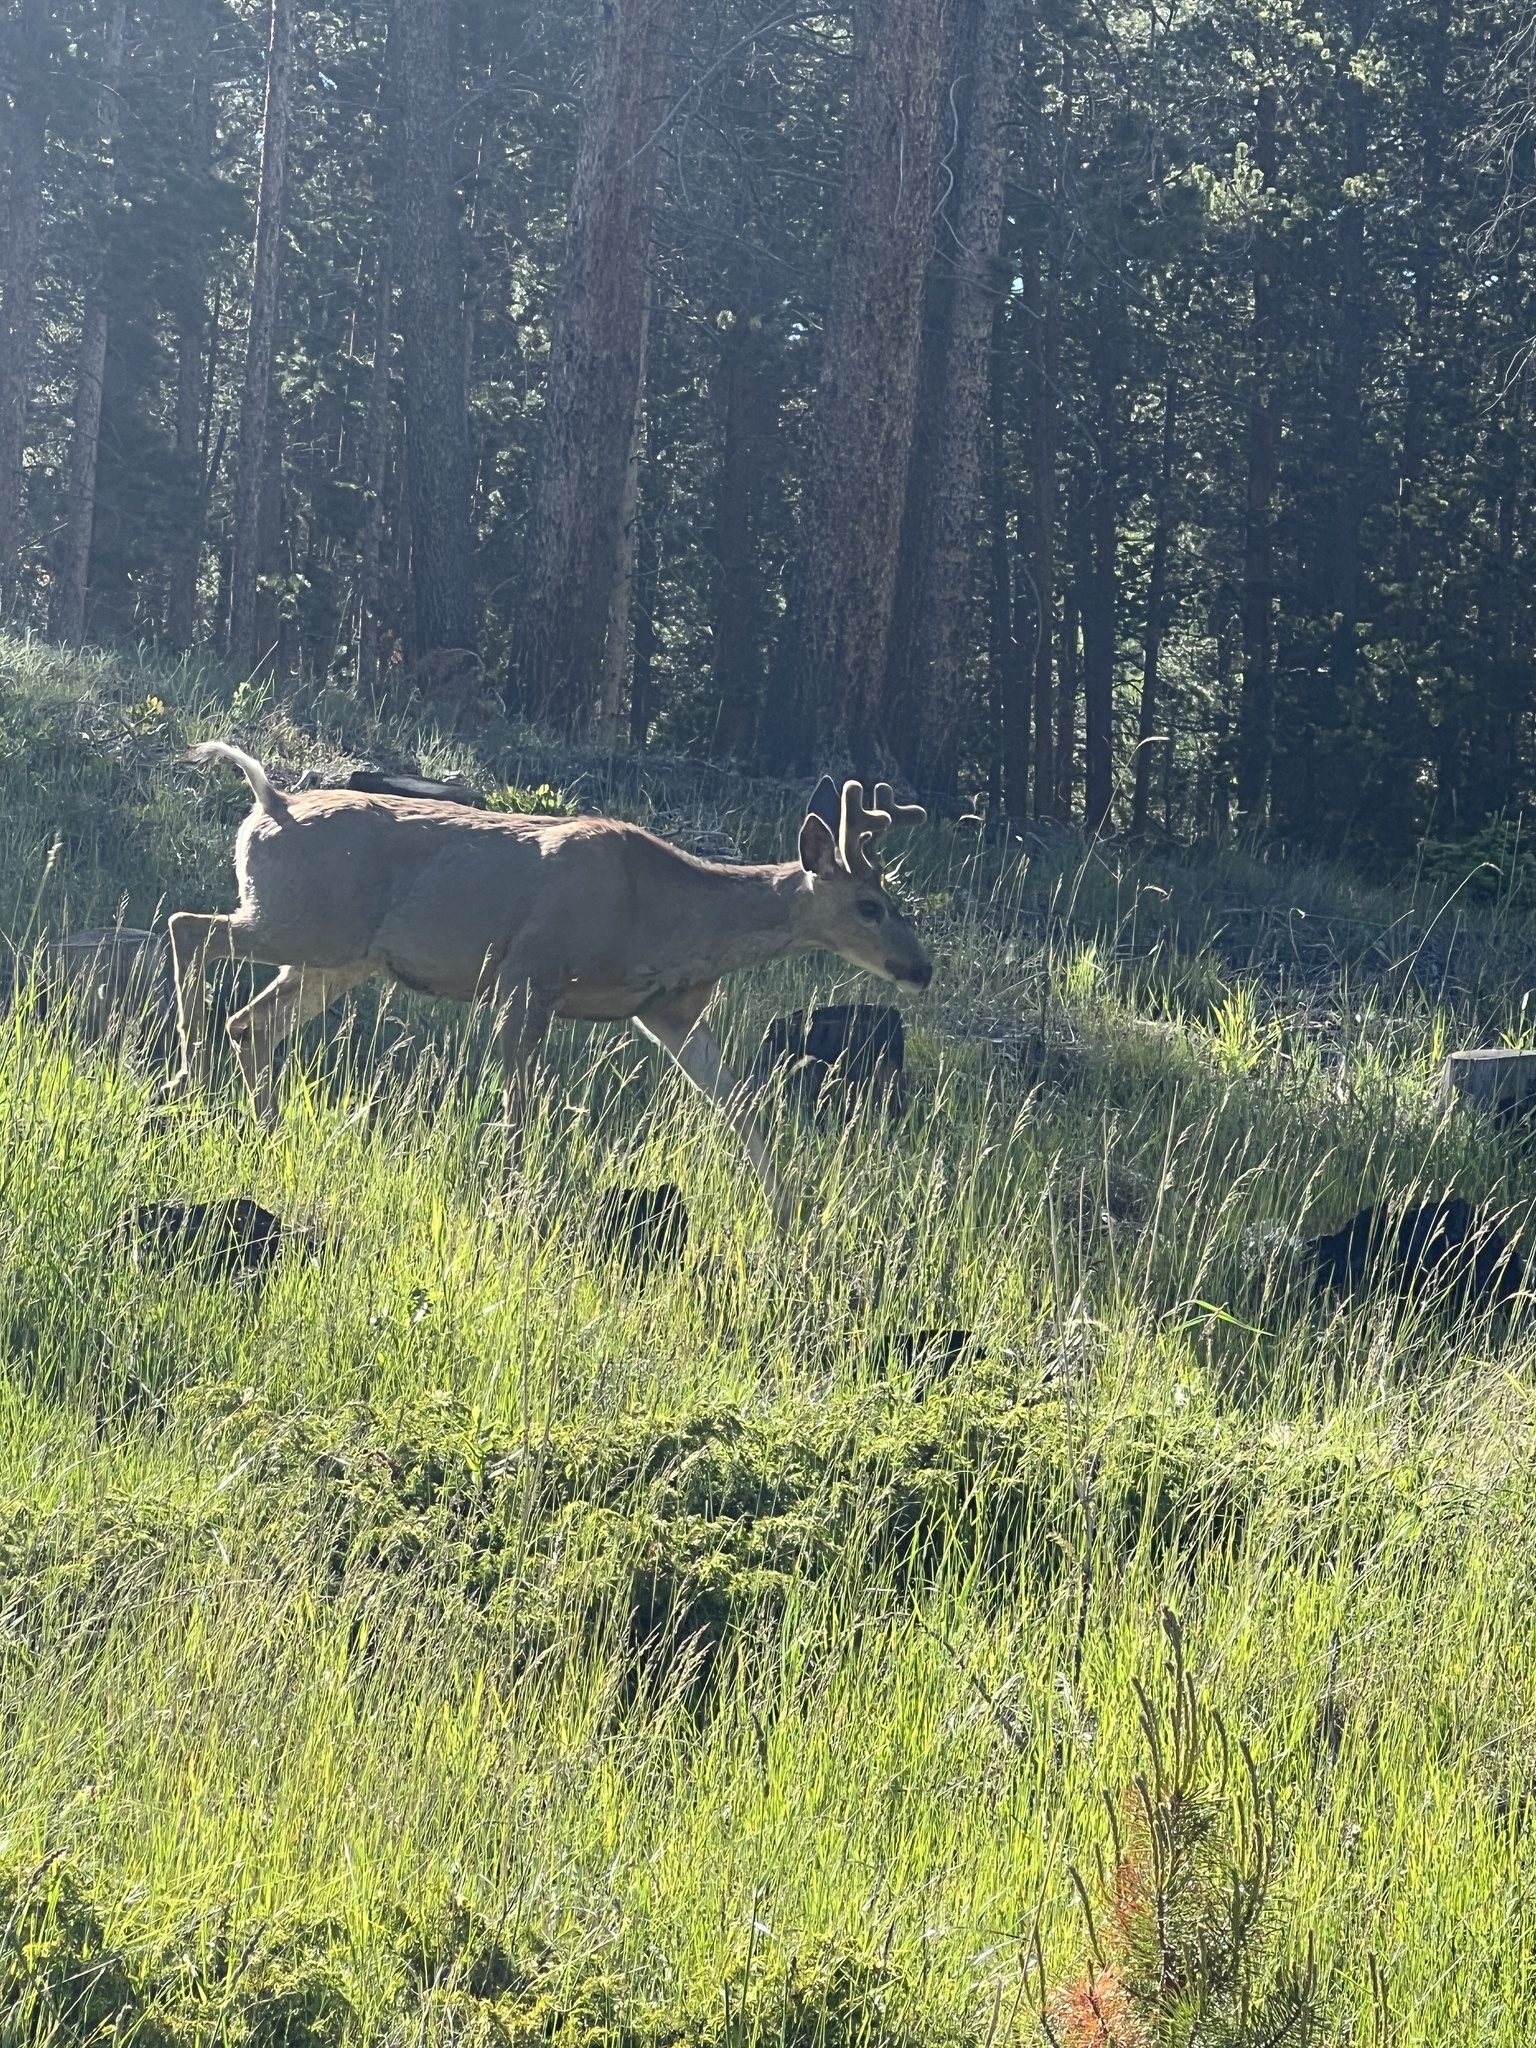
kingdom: Animalia
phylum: Chordata
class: Mammalia
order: Artiodactyla
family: Cervidae
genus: Odocoileus
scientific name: Odocoileus hemionus
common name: Mule deer
